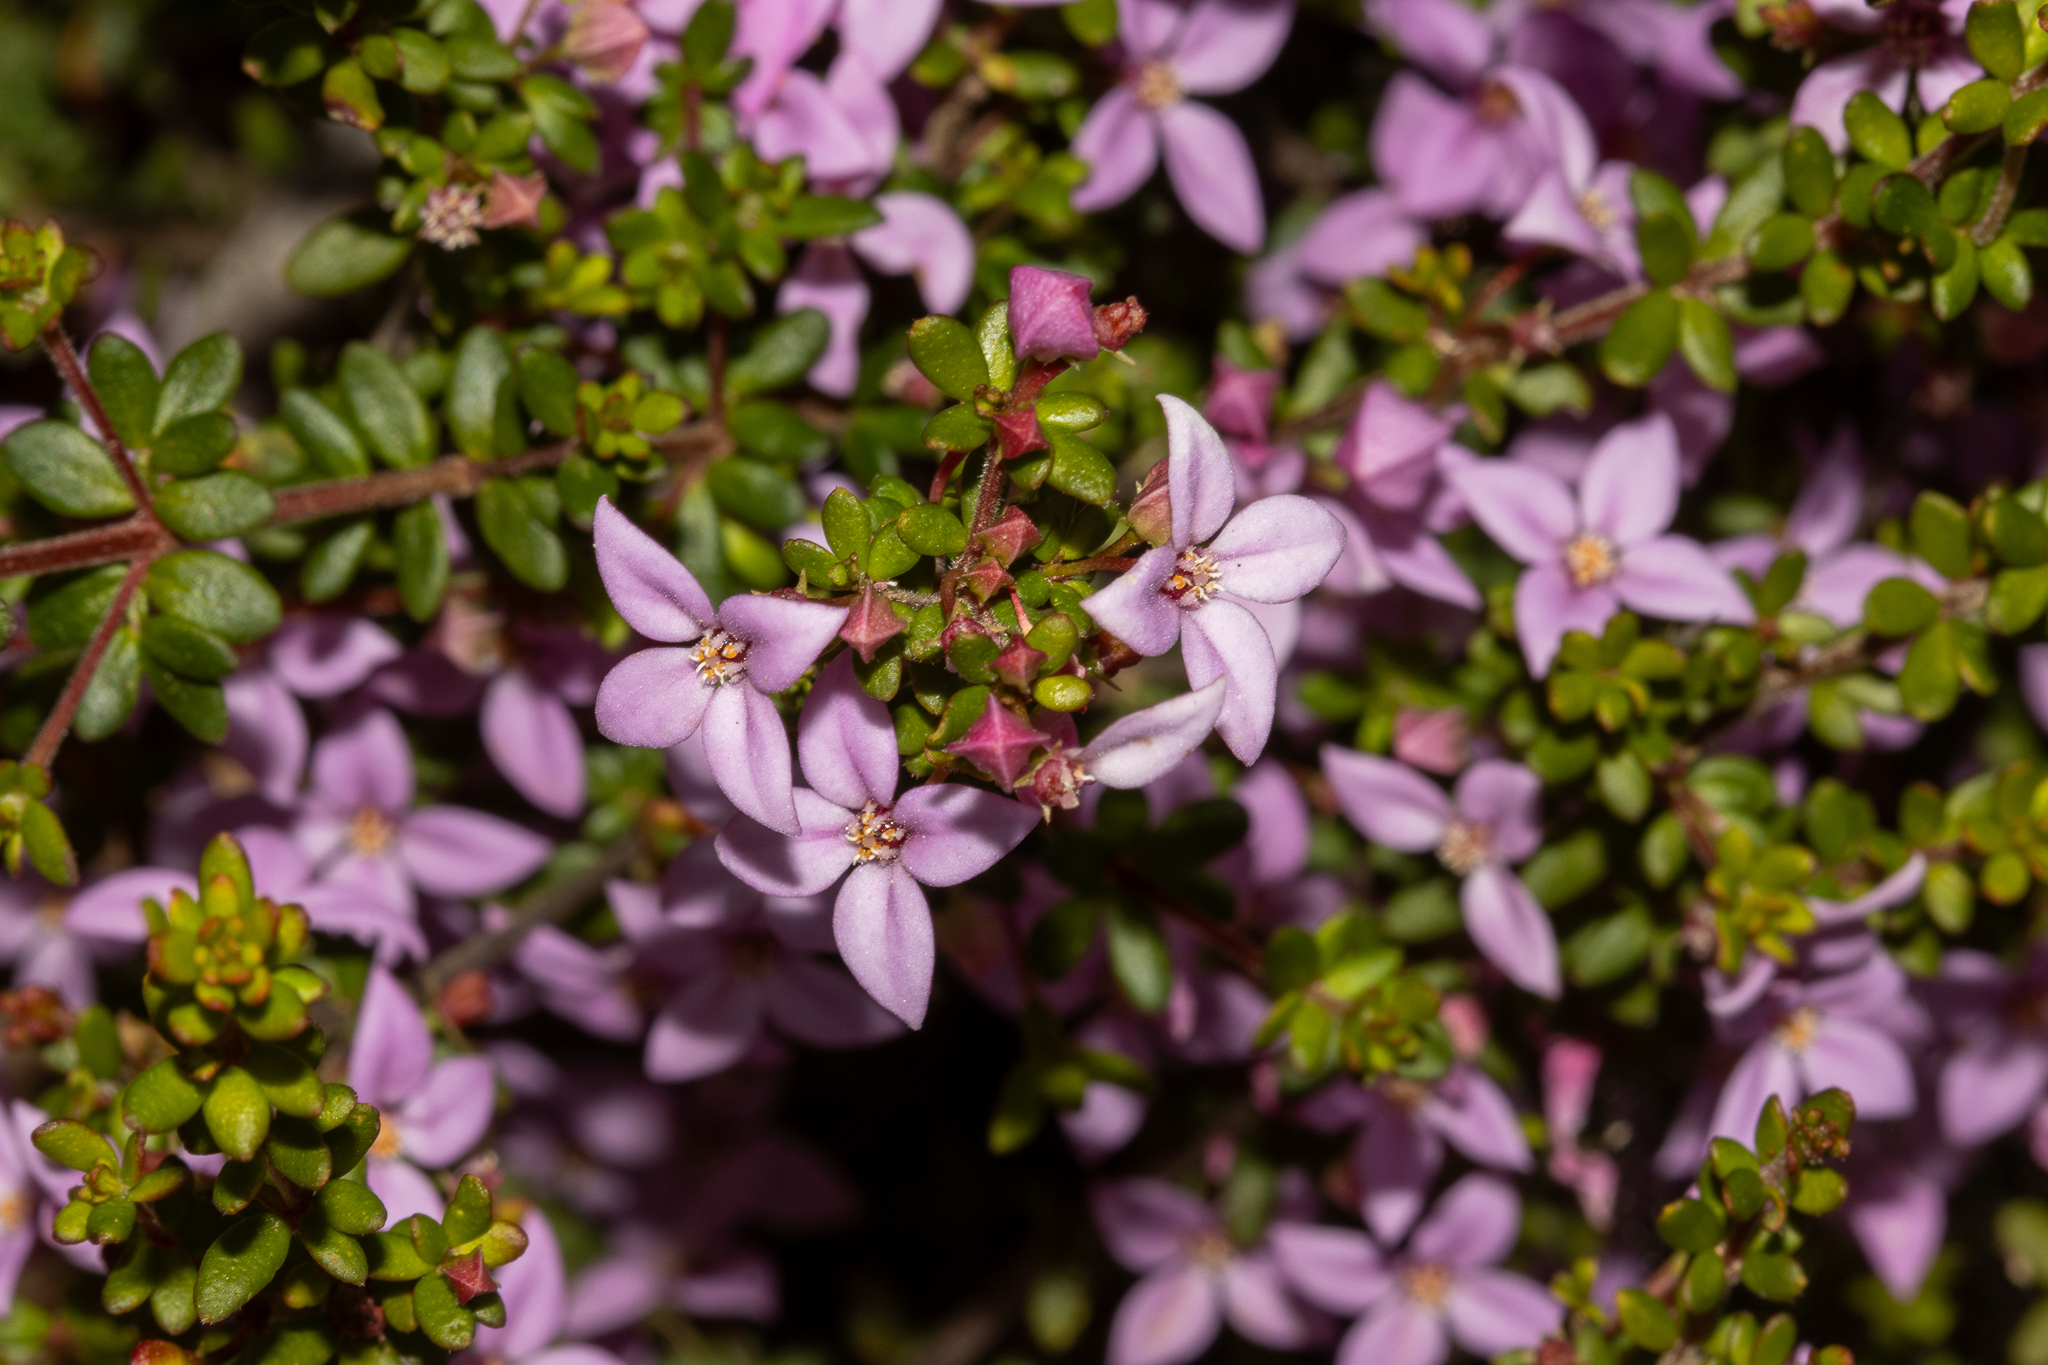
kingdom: Plantae
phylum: Tracheophyta
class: Magnoliopsida
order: Sapindales
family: Rutaceae
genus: Boronia
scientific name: Boronia edwardsii
